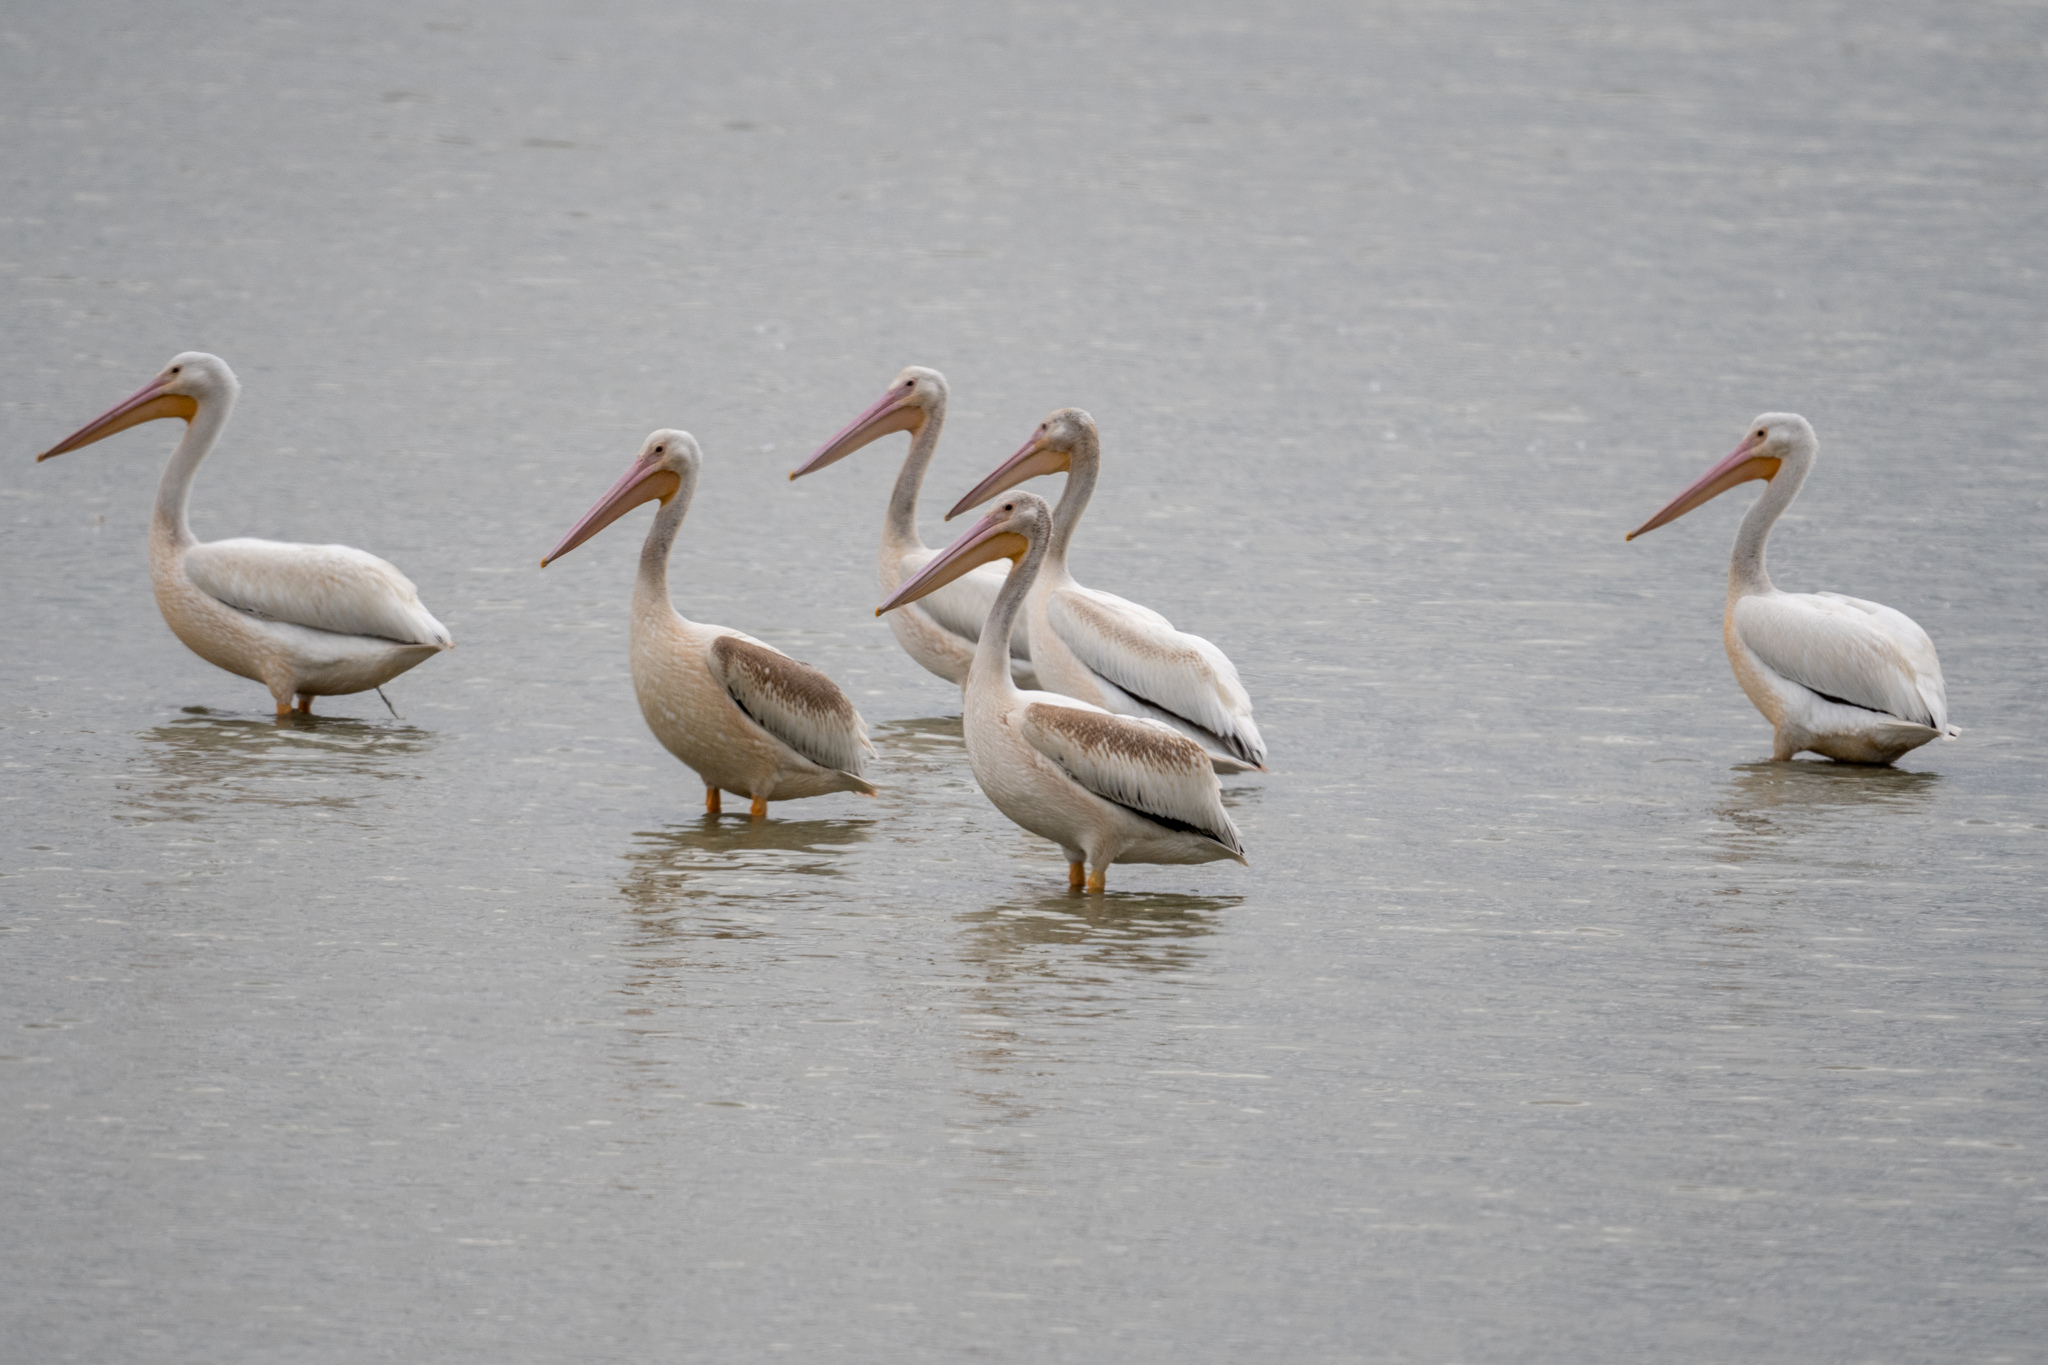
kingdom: Animalia
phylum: Chordata
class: Aves
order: Pelecaniformes
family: Pelecanidae
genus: Pelecanus
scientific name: Pelecanus erythrorhynchos
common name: American white pelican
